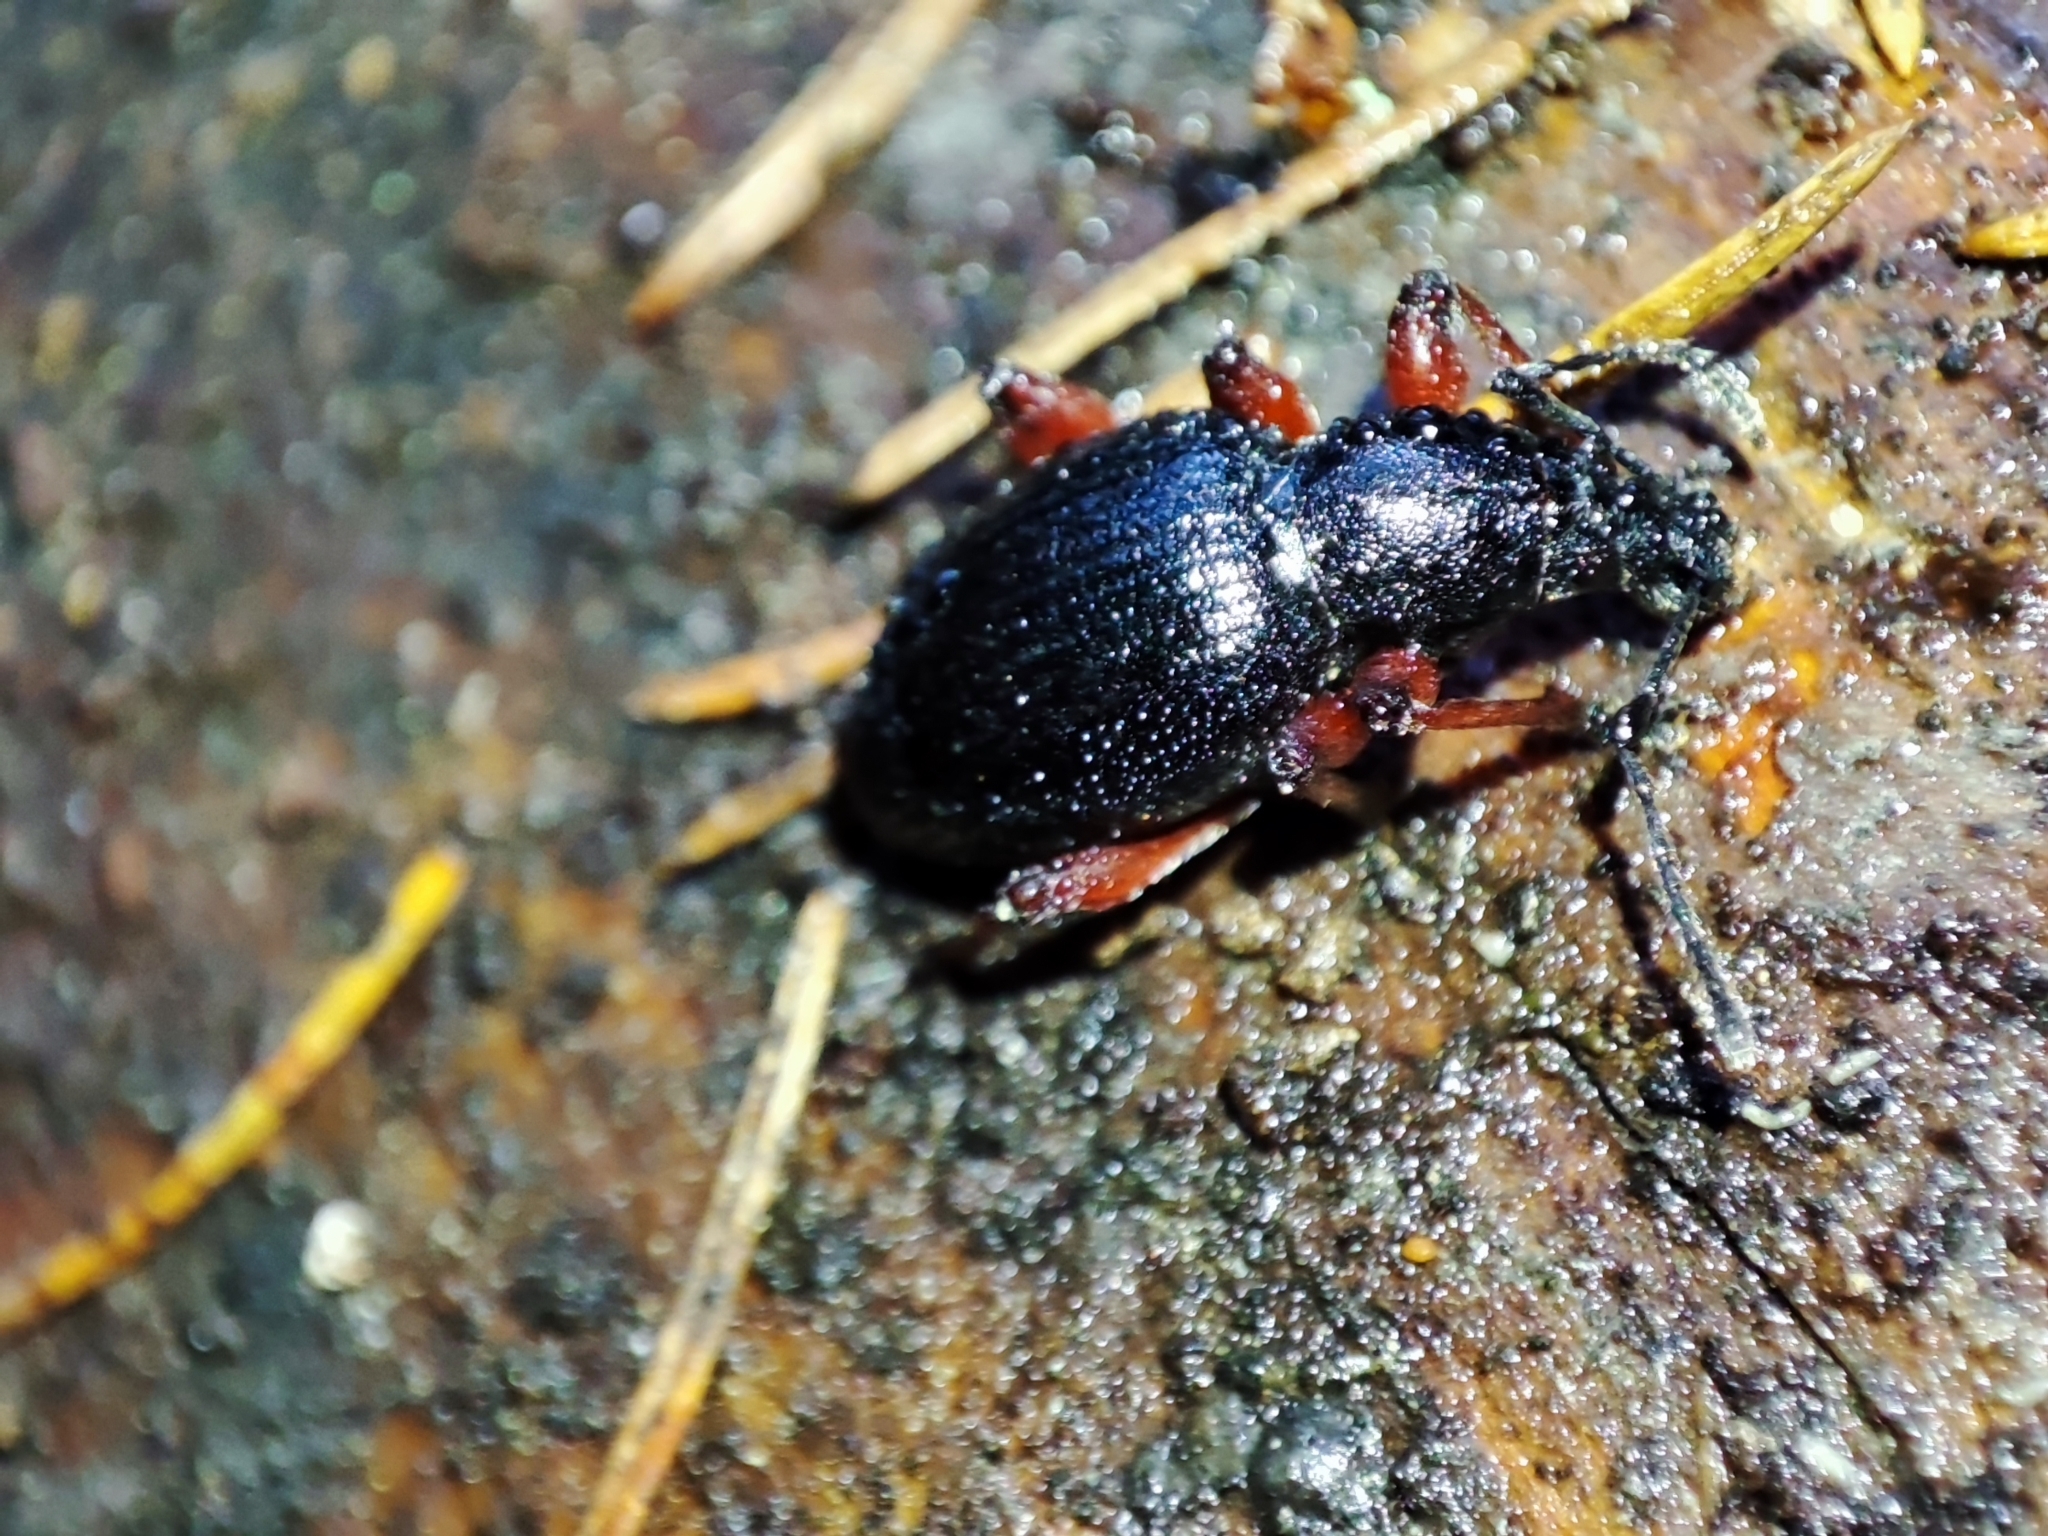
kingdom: Animalia
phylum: Arthropoda
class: Insecta
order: Coleoptera
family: Curculionidae
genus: Otiorhynchus
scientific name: Otiorhynchus fagi
